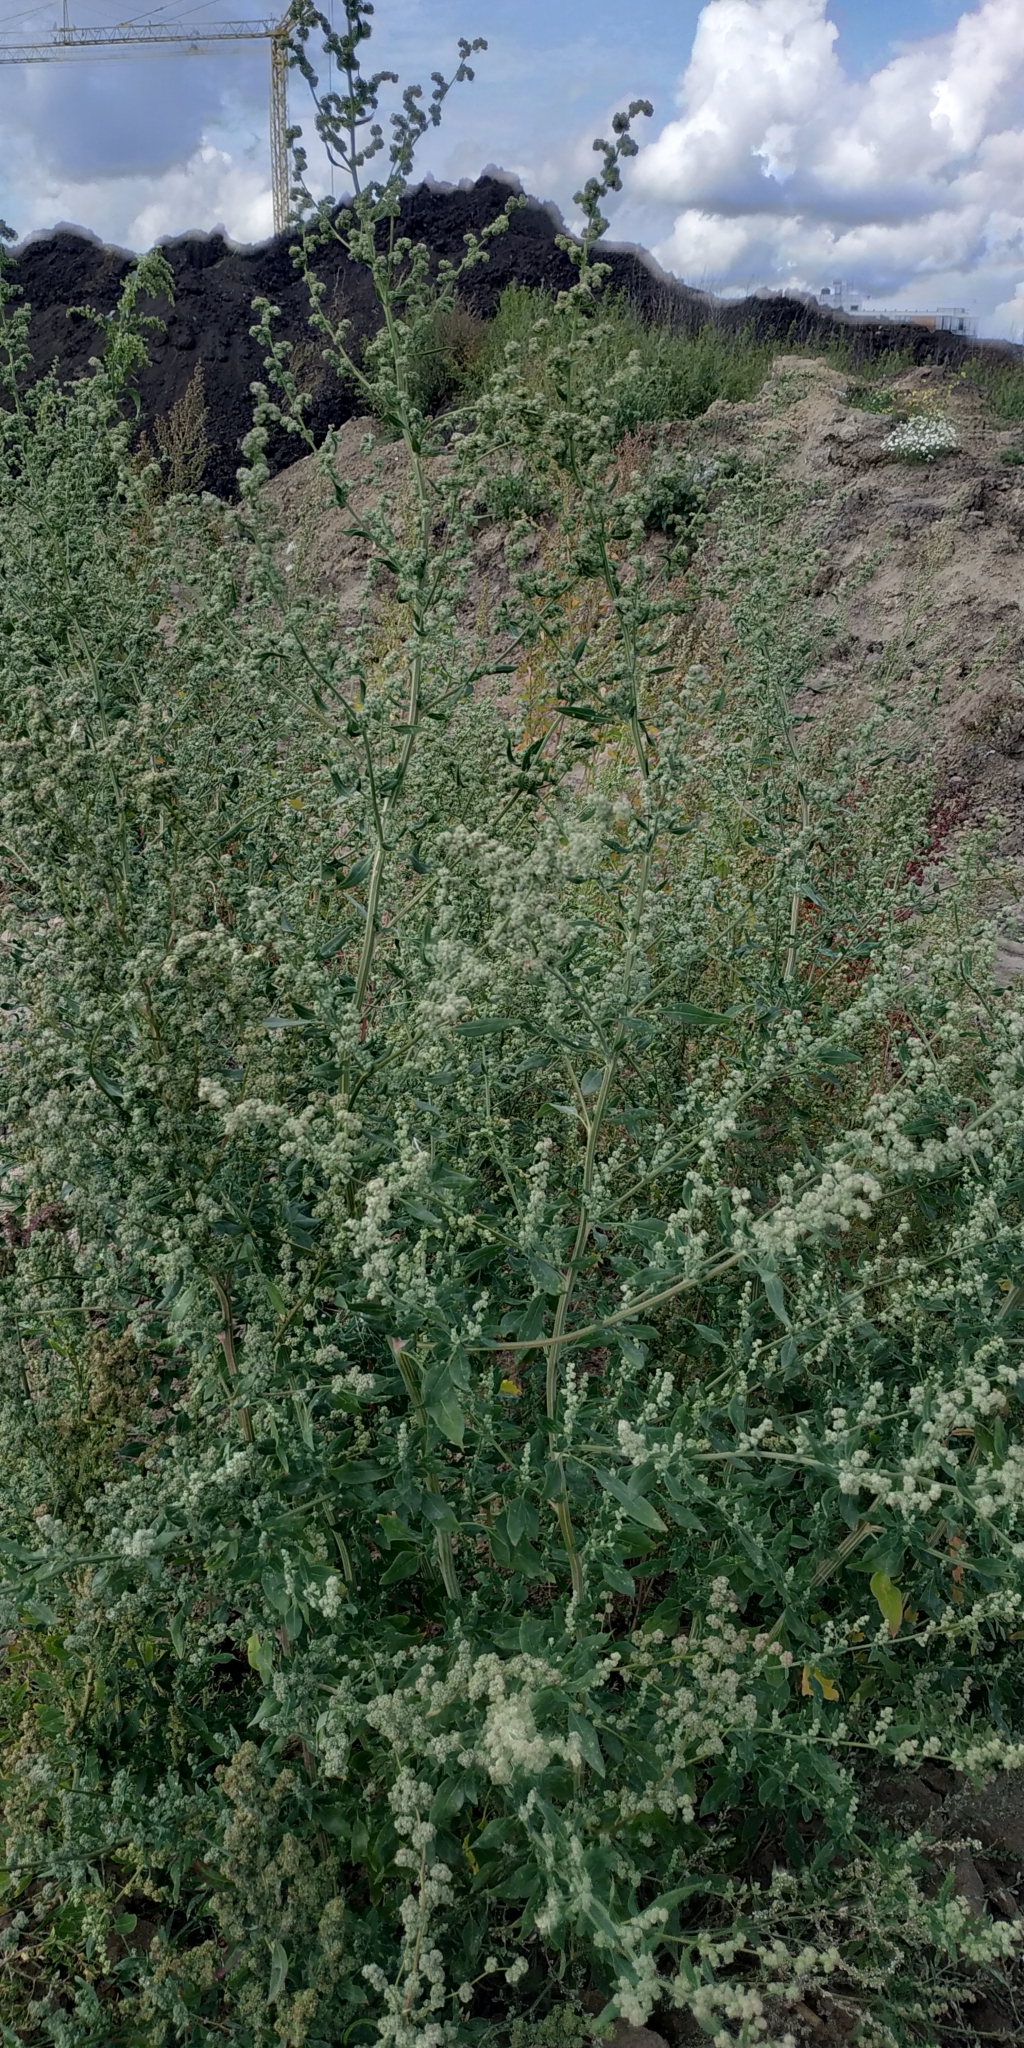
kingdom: Plantae
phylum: Tracheophyta
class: Magnoliopsida
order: Caryophyllales
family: Amaranthaceae
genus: Chenopodium
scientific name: Chenopodium album
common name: Fat-hen
